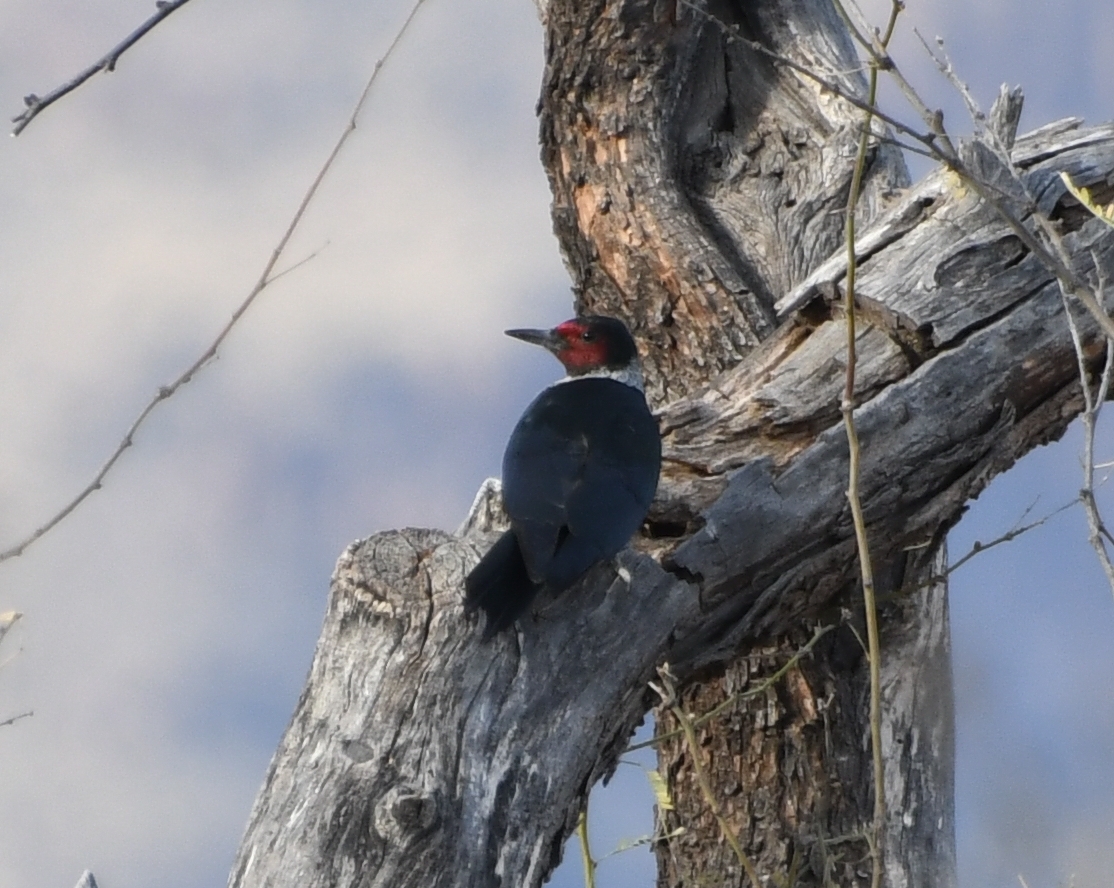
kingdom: Animalia
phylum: Chordata
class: Aves
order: Piciformes
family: Picidae
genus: Melanerpes
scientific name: Melanerpes lewis
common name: Lewis's woodpecker
